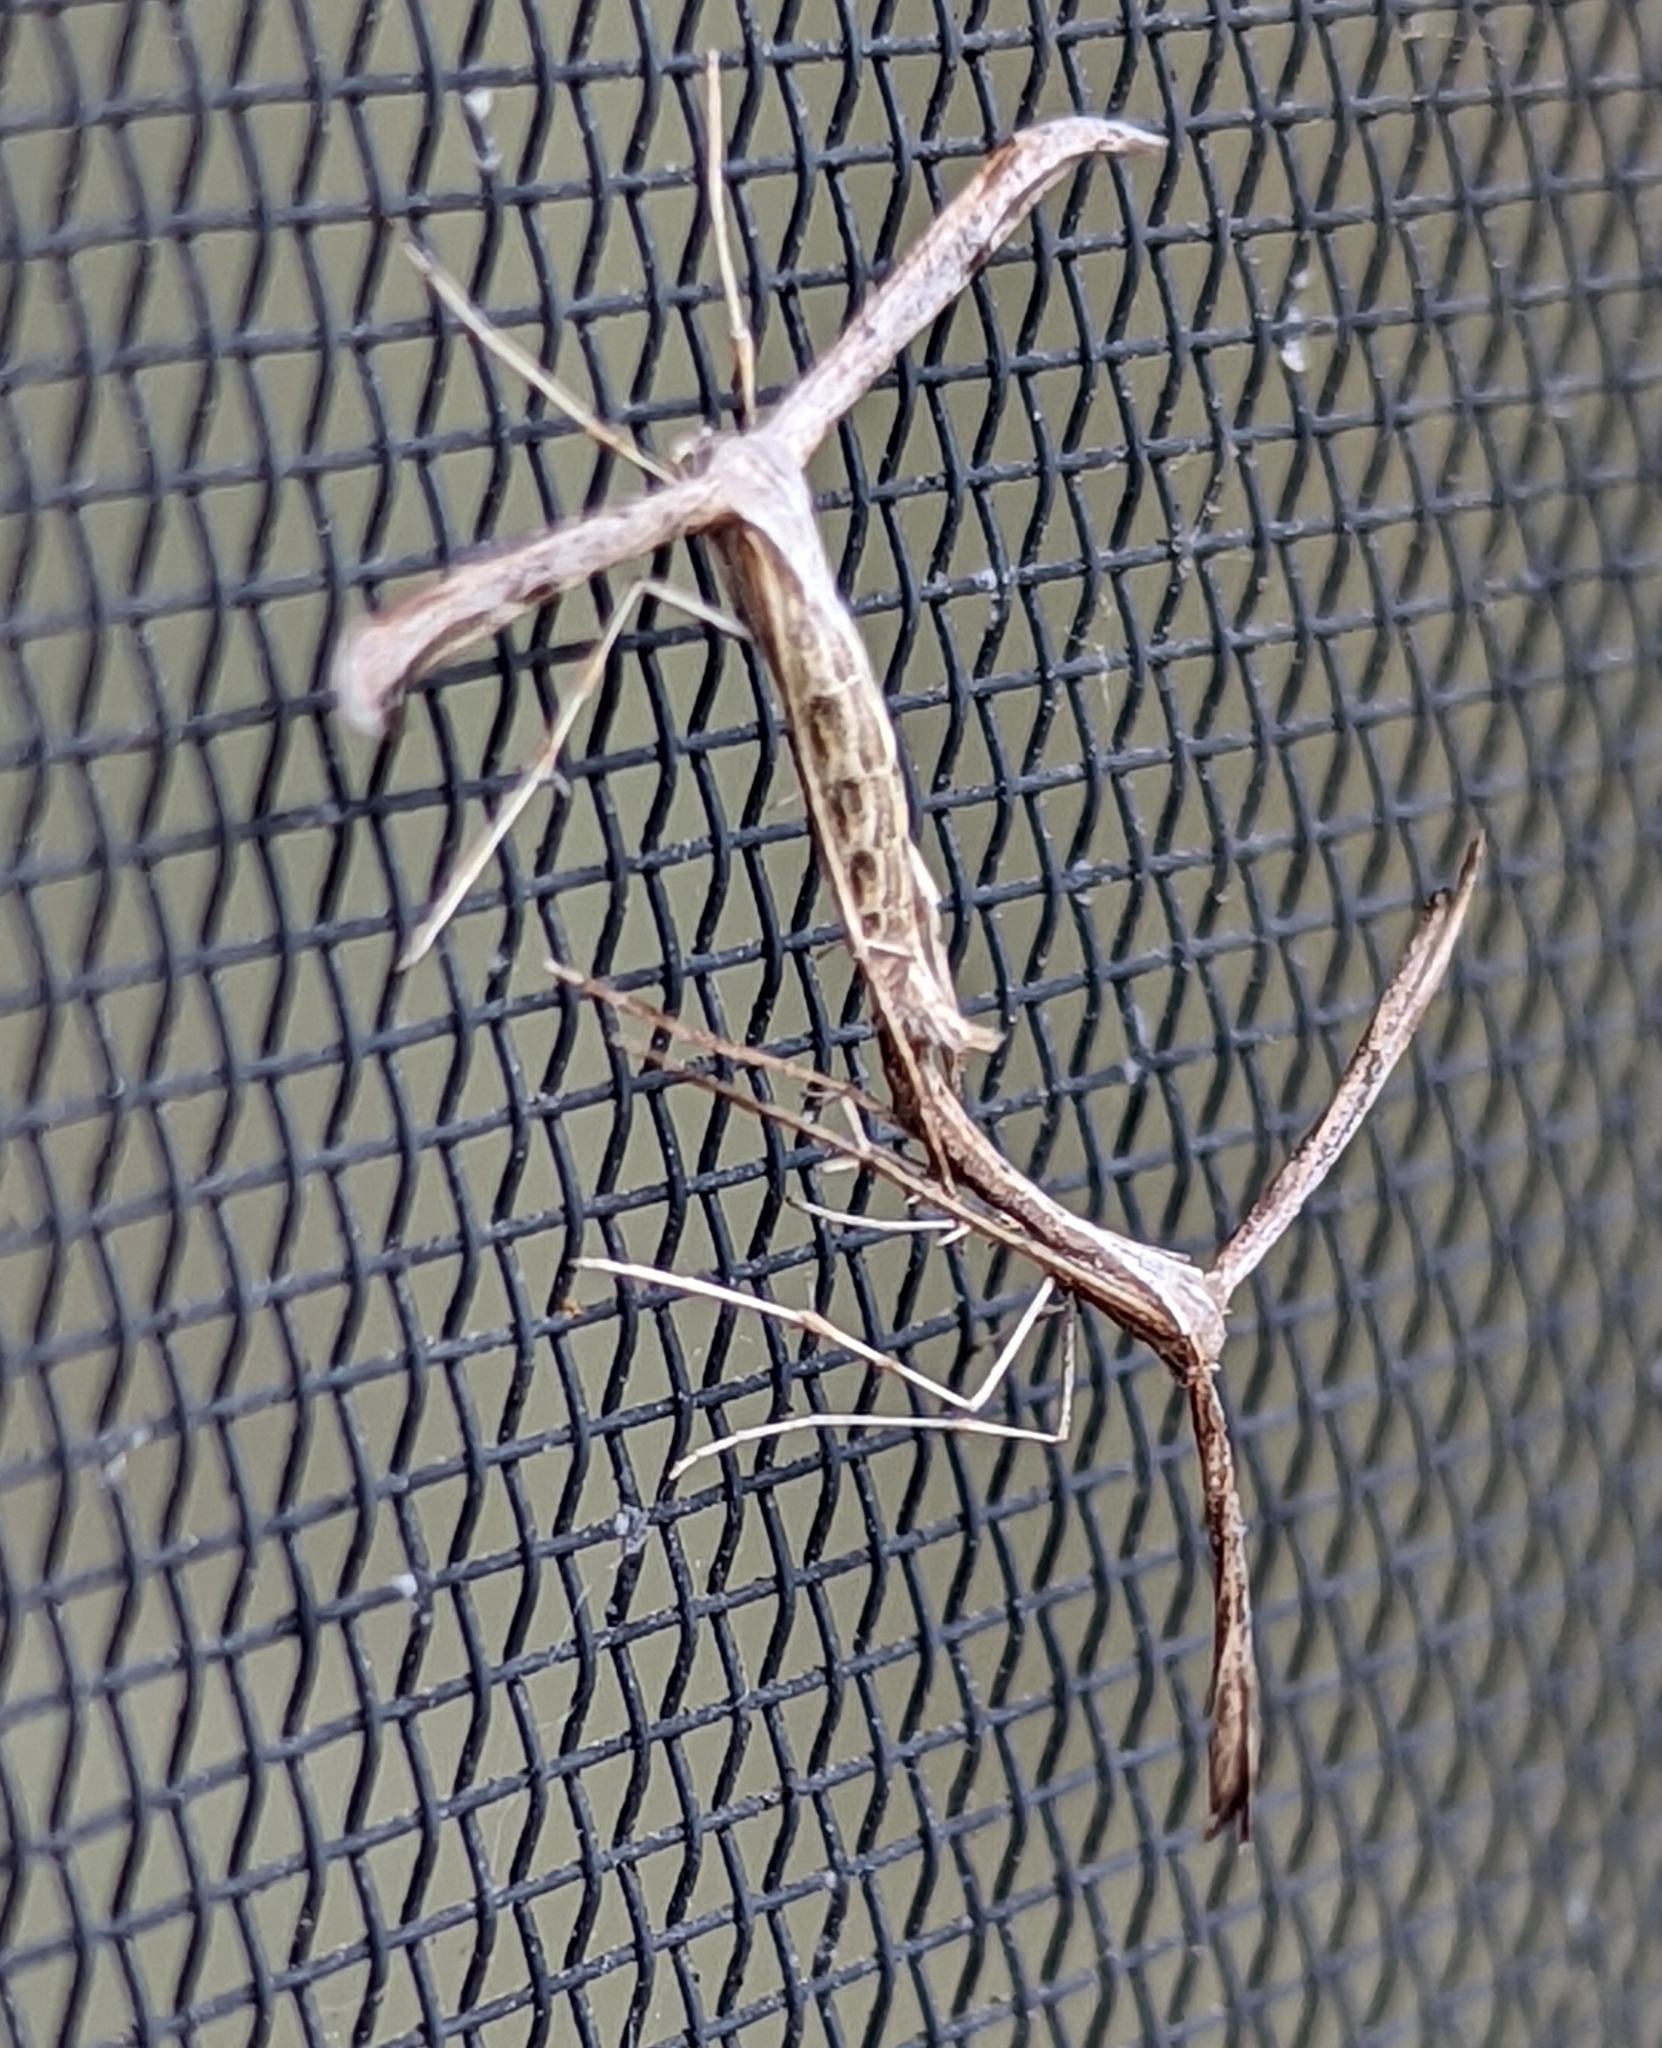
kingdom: Animalia
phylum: Arthropoda
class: Insecta
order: Lepidoptera
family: Pterophoridae
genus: Emmelina
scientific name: Emmelina monodactyla
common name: Common plume
